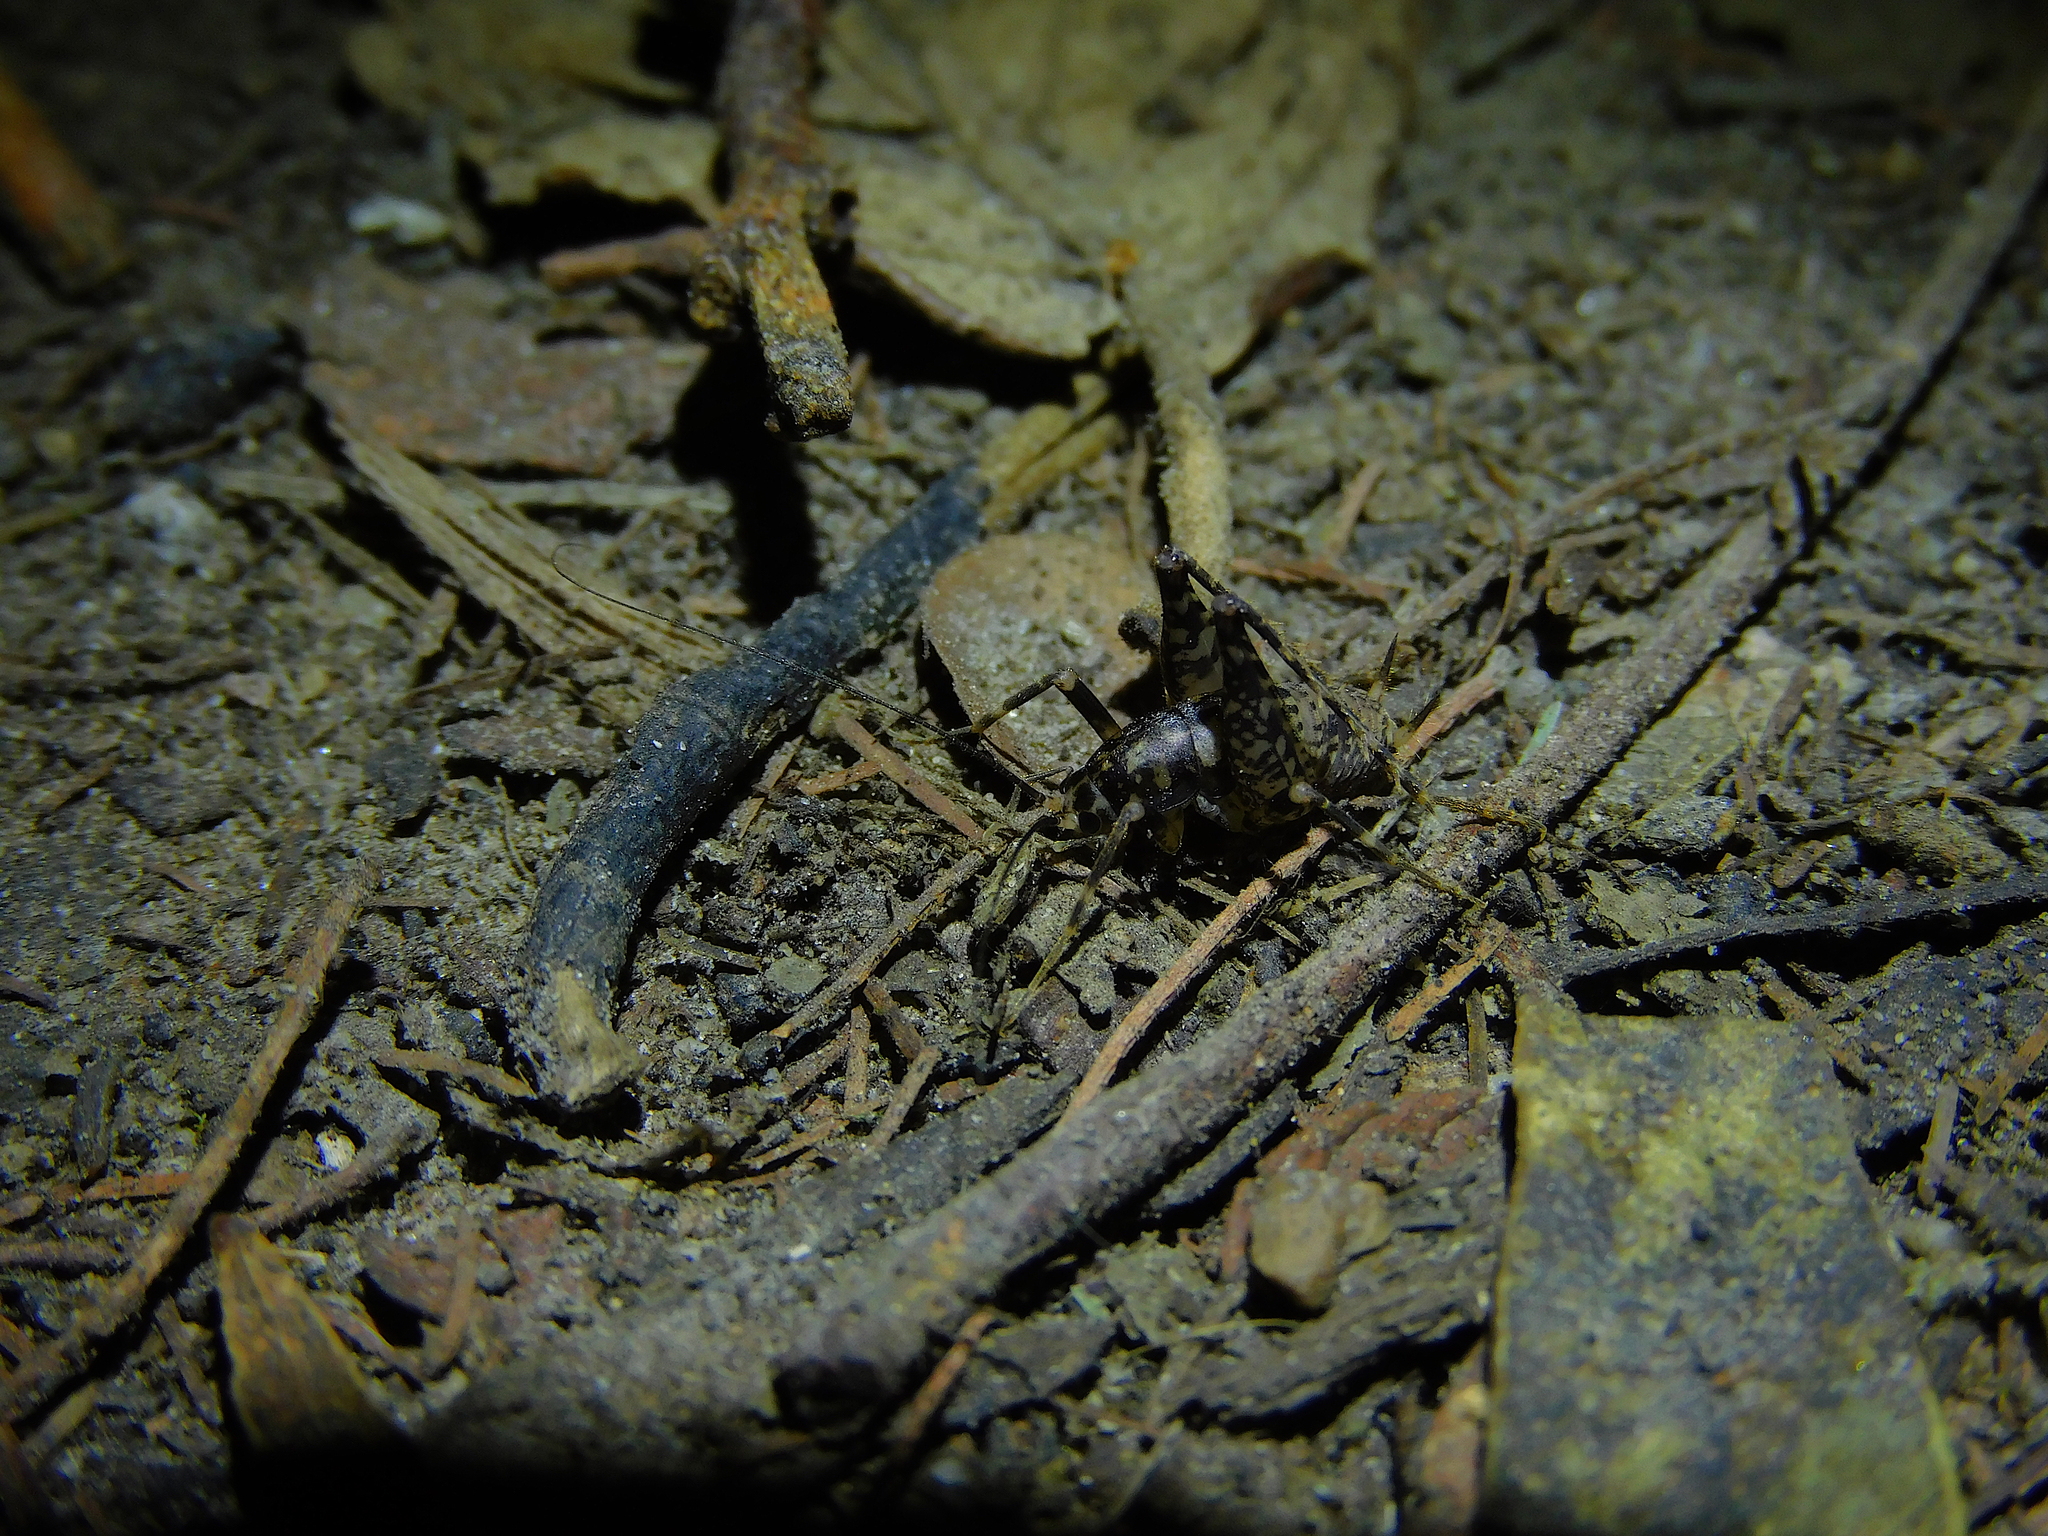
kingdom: Animalia
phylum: Arthropoda
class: Insecta
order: Orthoptera
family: Rhaphidophoridae
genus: Parvotettix
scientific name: Parvotettix domesticus
